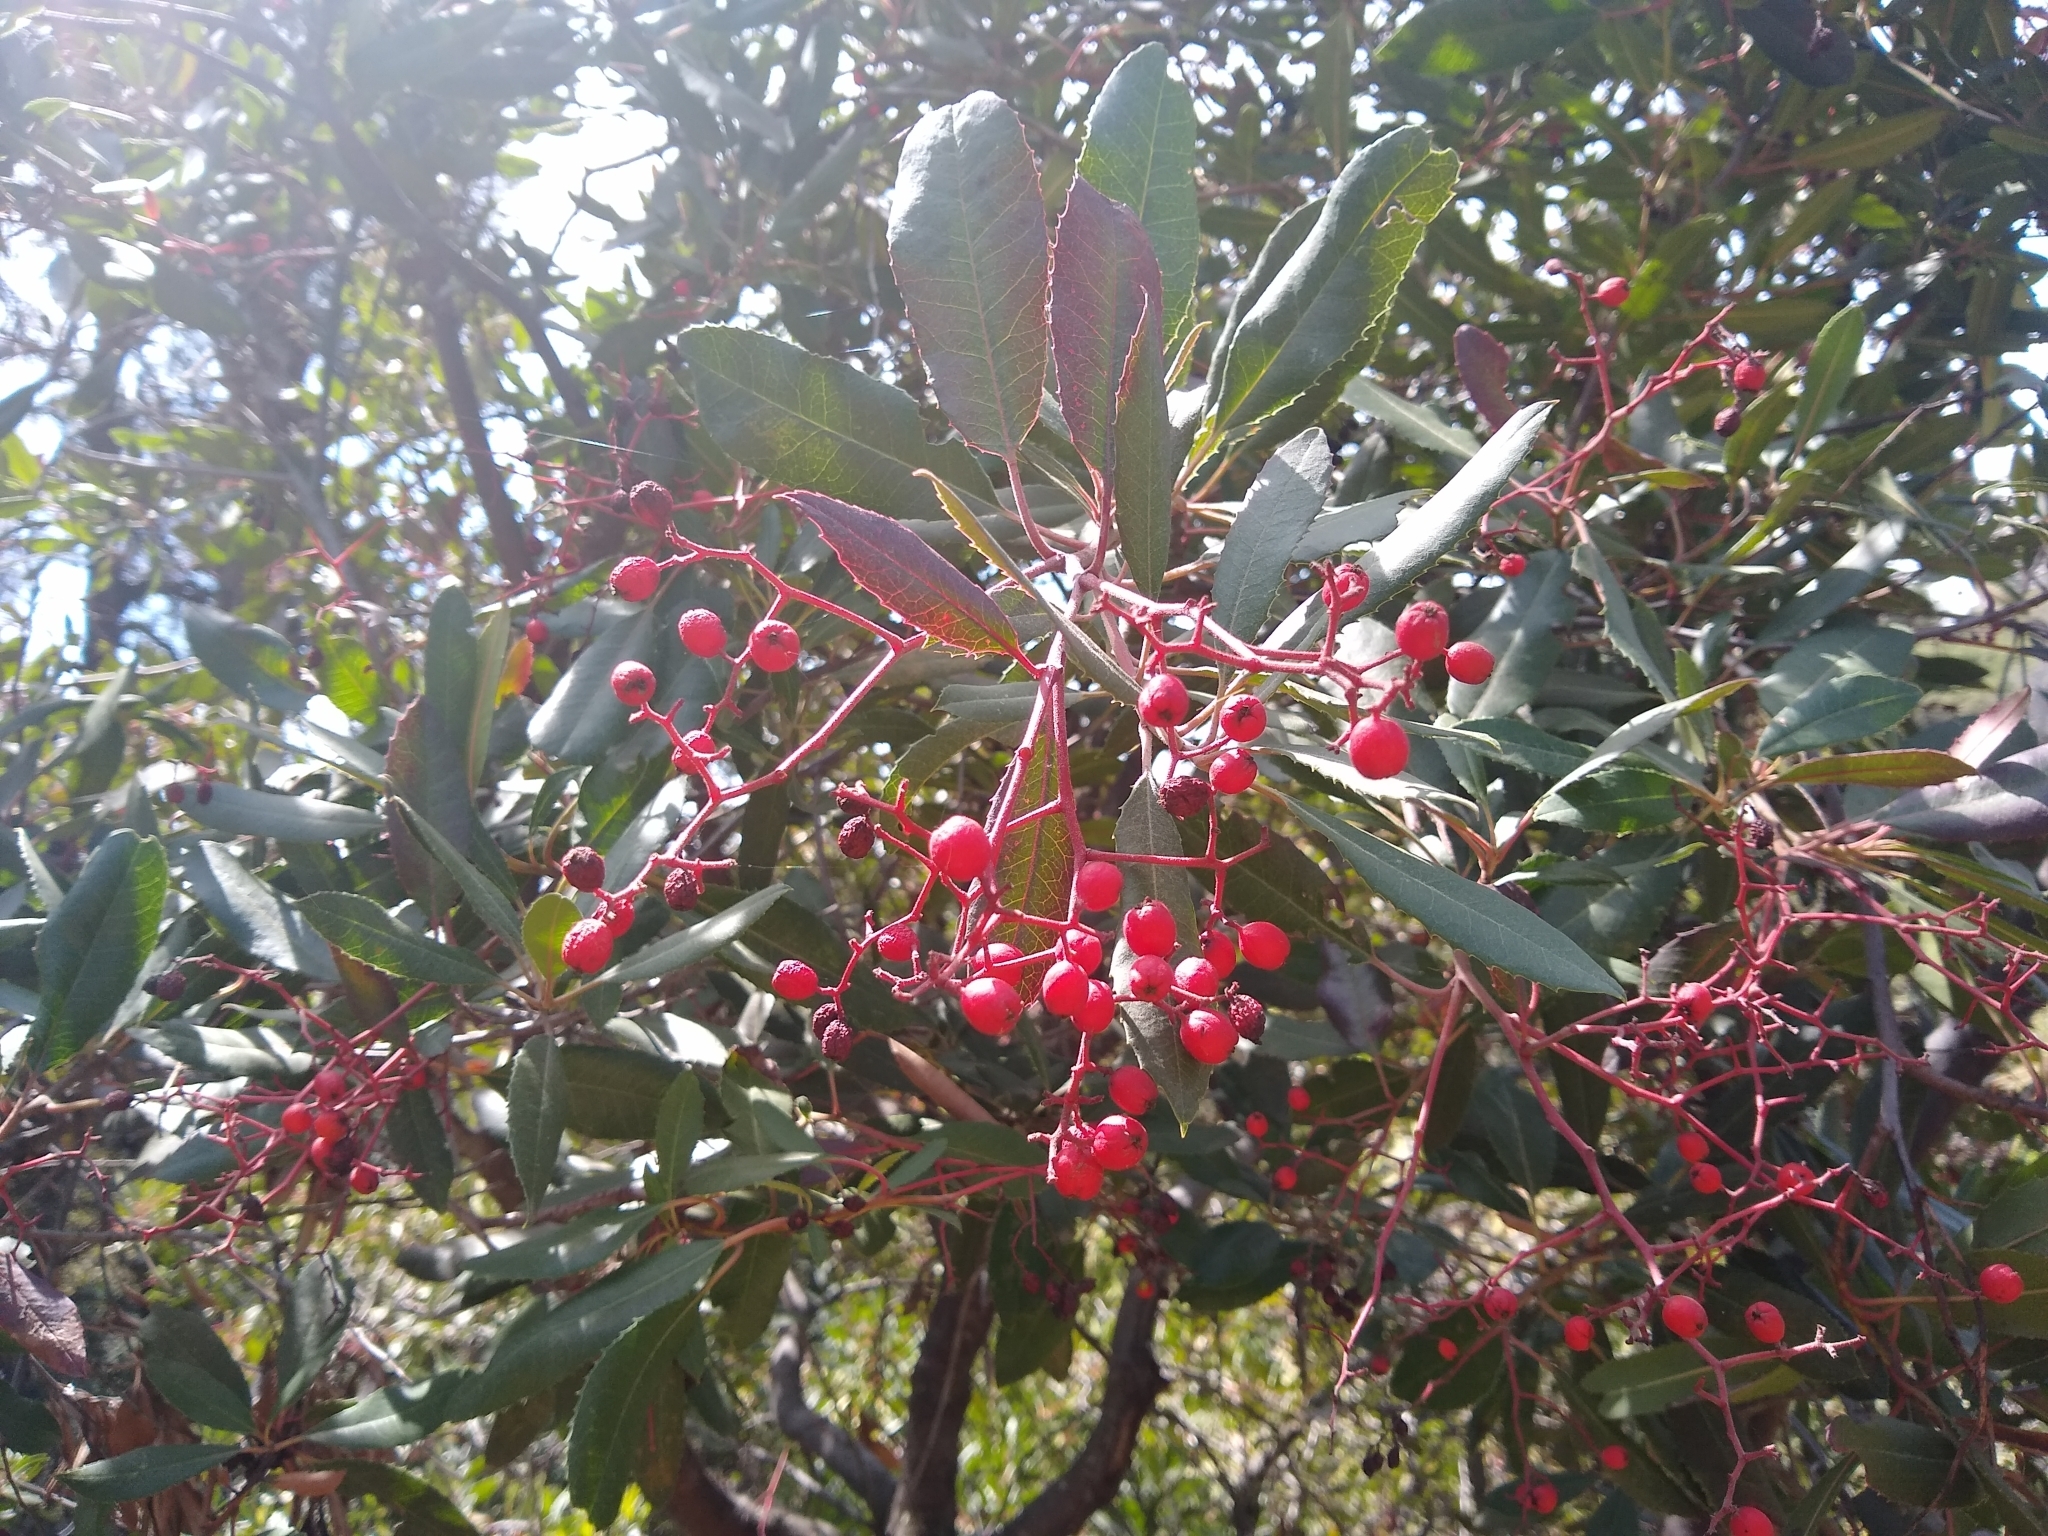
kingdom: Plantae
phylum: Tracheophyta
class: Magnoliopsida
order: Rosales
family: Rosaceae
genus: Heteromeles
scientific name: Heteromeles arbutifolia
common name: California-holly
